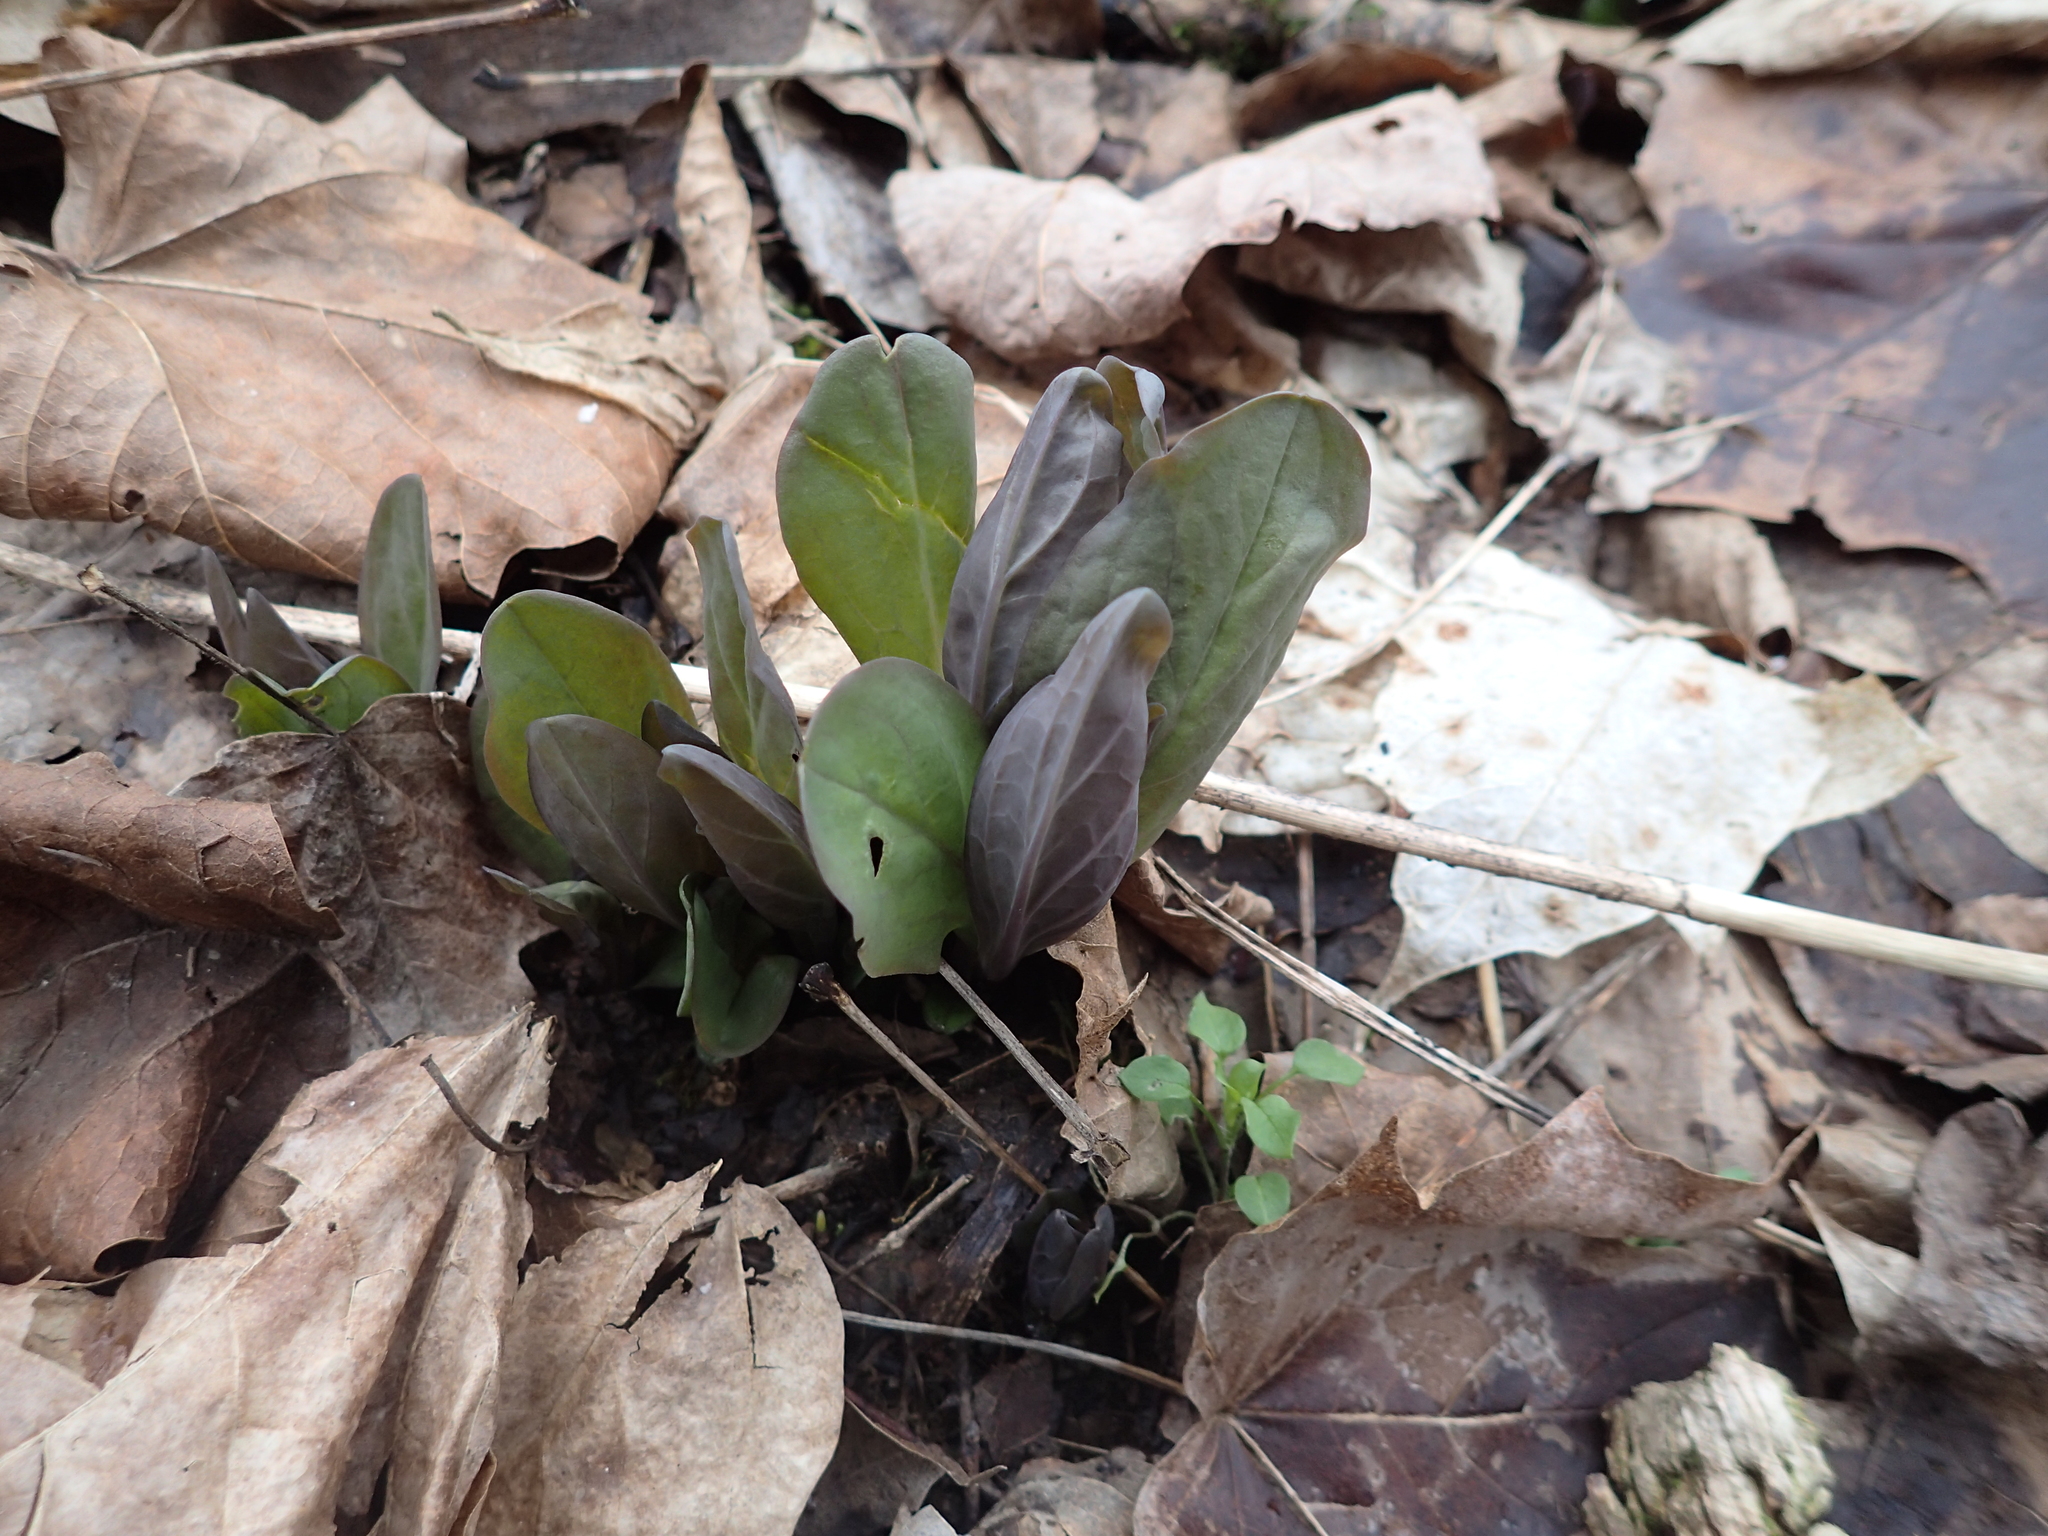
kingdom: Plantae
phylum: Tracheophyta
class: Magnoliopsida
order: Boraginales
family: Boraginaceae
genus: Mertensia
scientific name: Mertensia virginica
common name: Virginia bluebells
